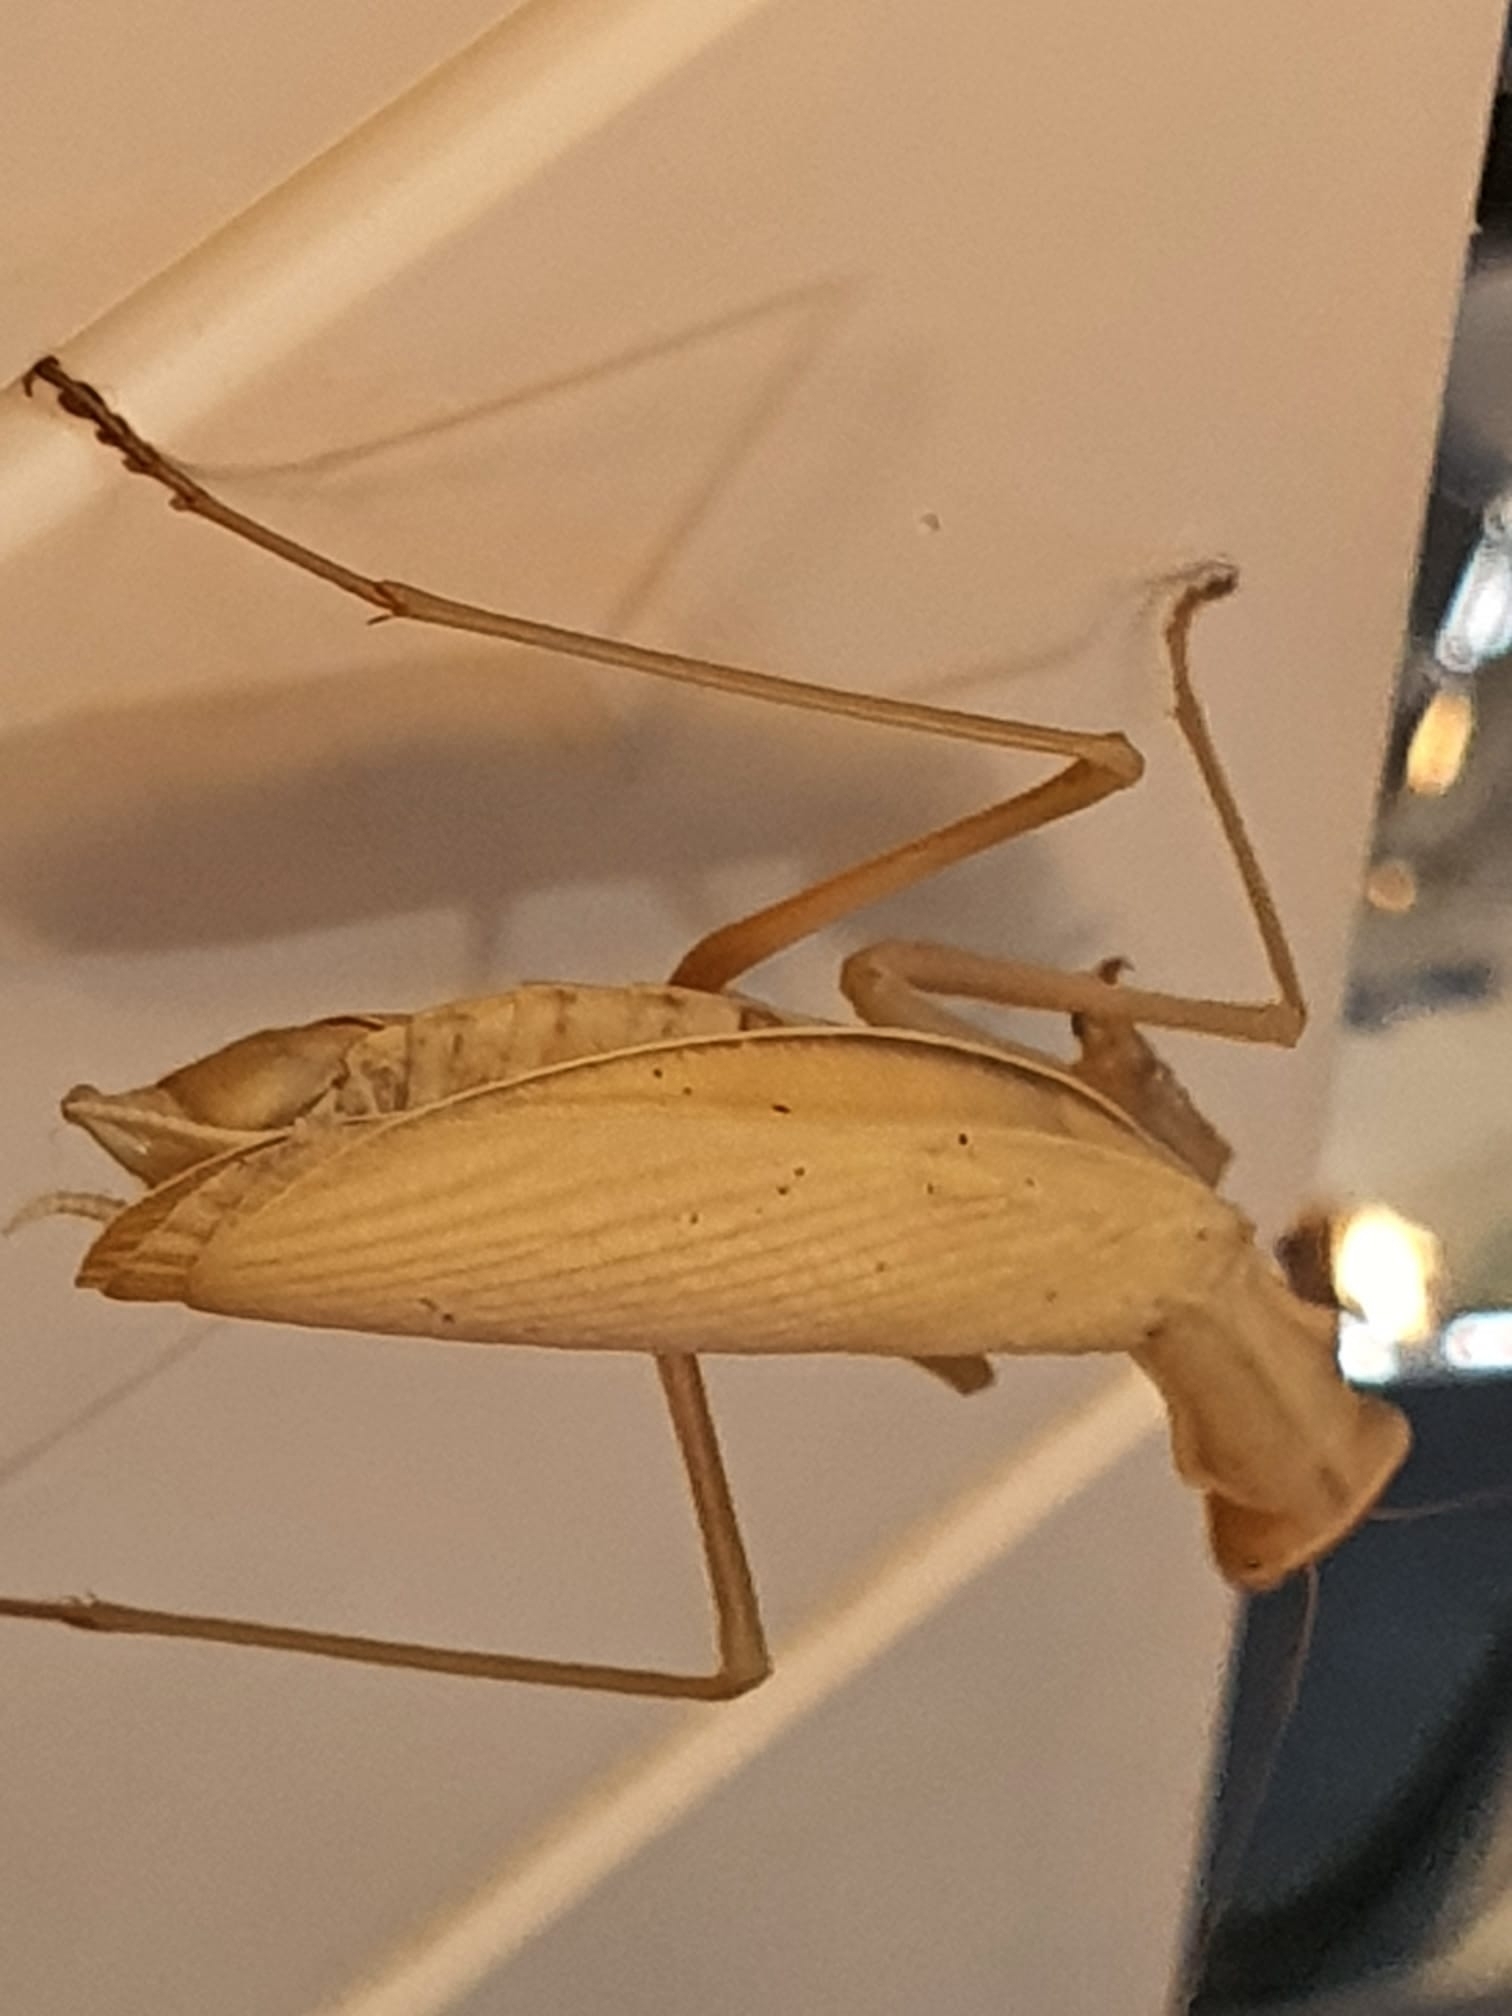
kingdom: Animalia
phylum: Arthropoda
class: Insecta
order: Mantodea
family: Mantidae
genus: Mantis
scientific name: Mantis religiosa
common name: Praying mantis
